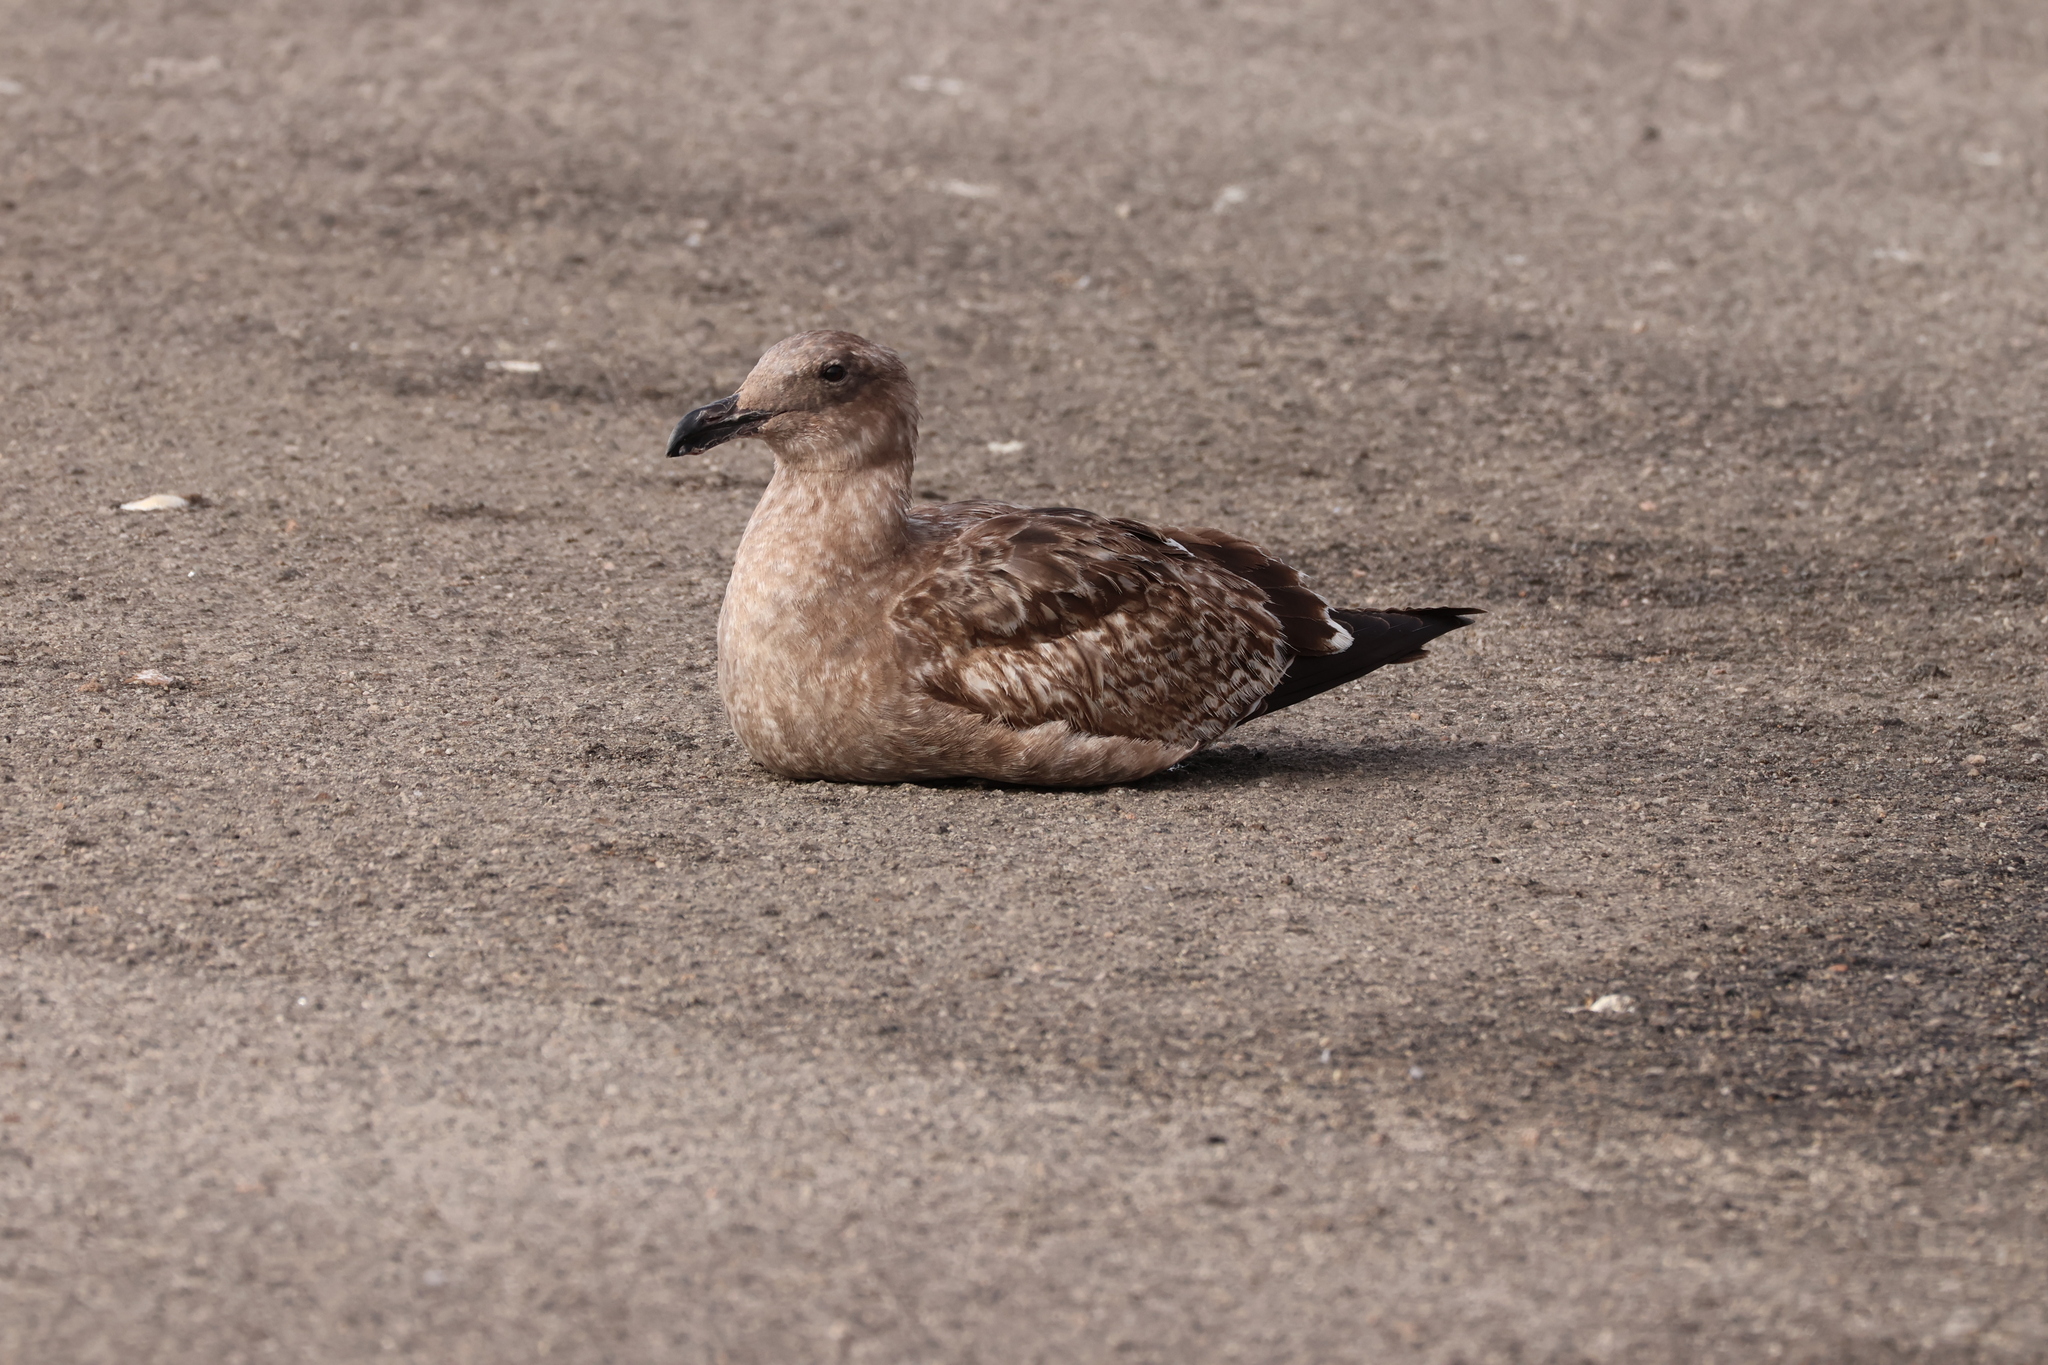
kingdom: Animalia
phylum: Chordata
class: Aves
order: Charadriiformes
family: Laridae
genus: Larus
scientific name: Larus occidentalis
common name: Western gull
